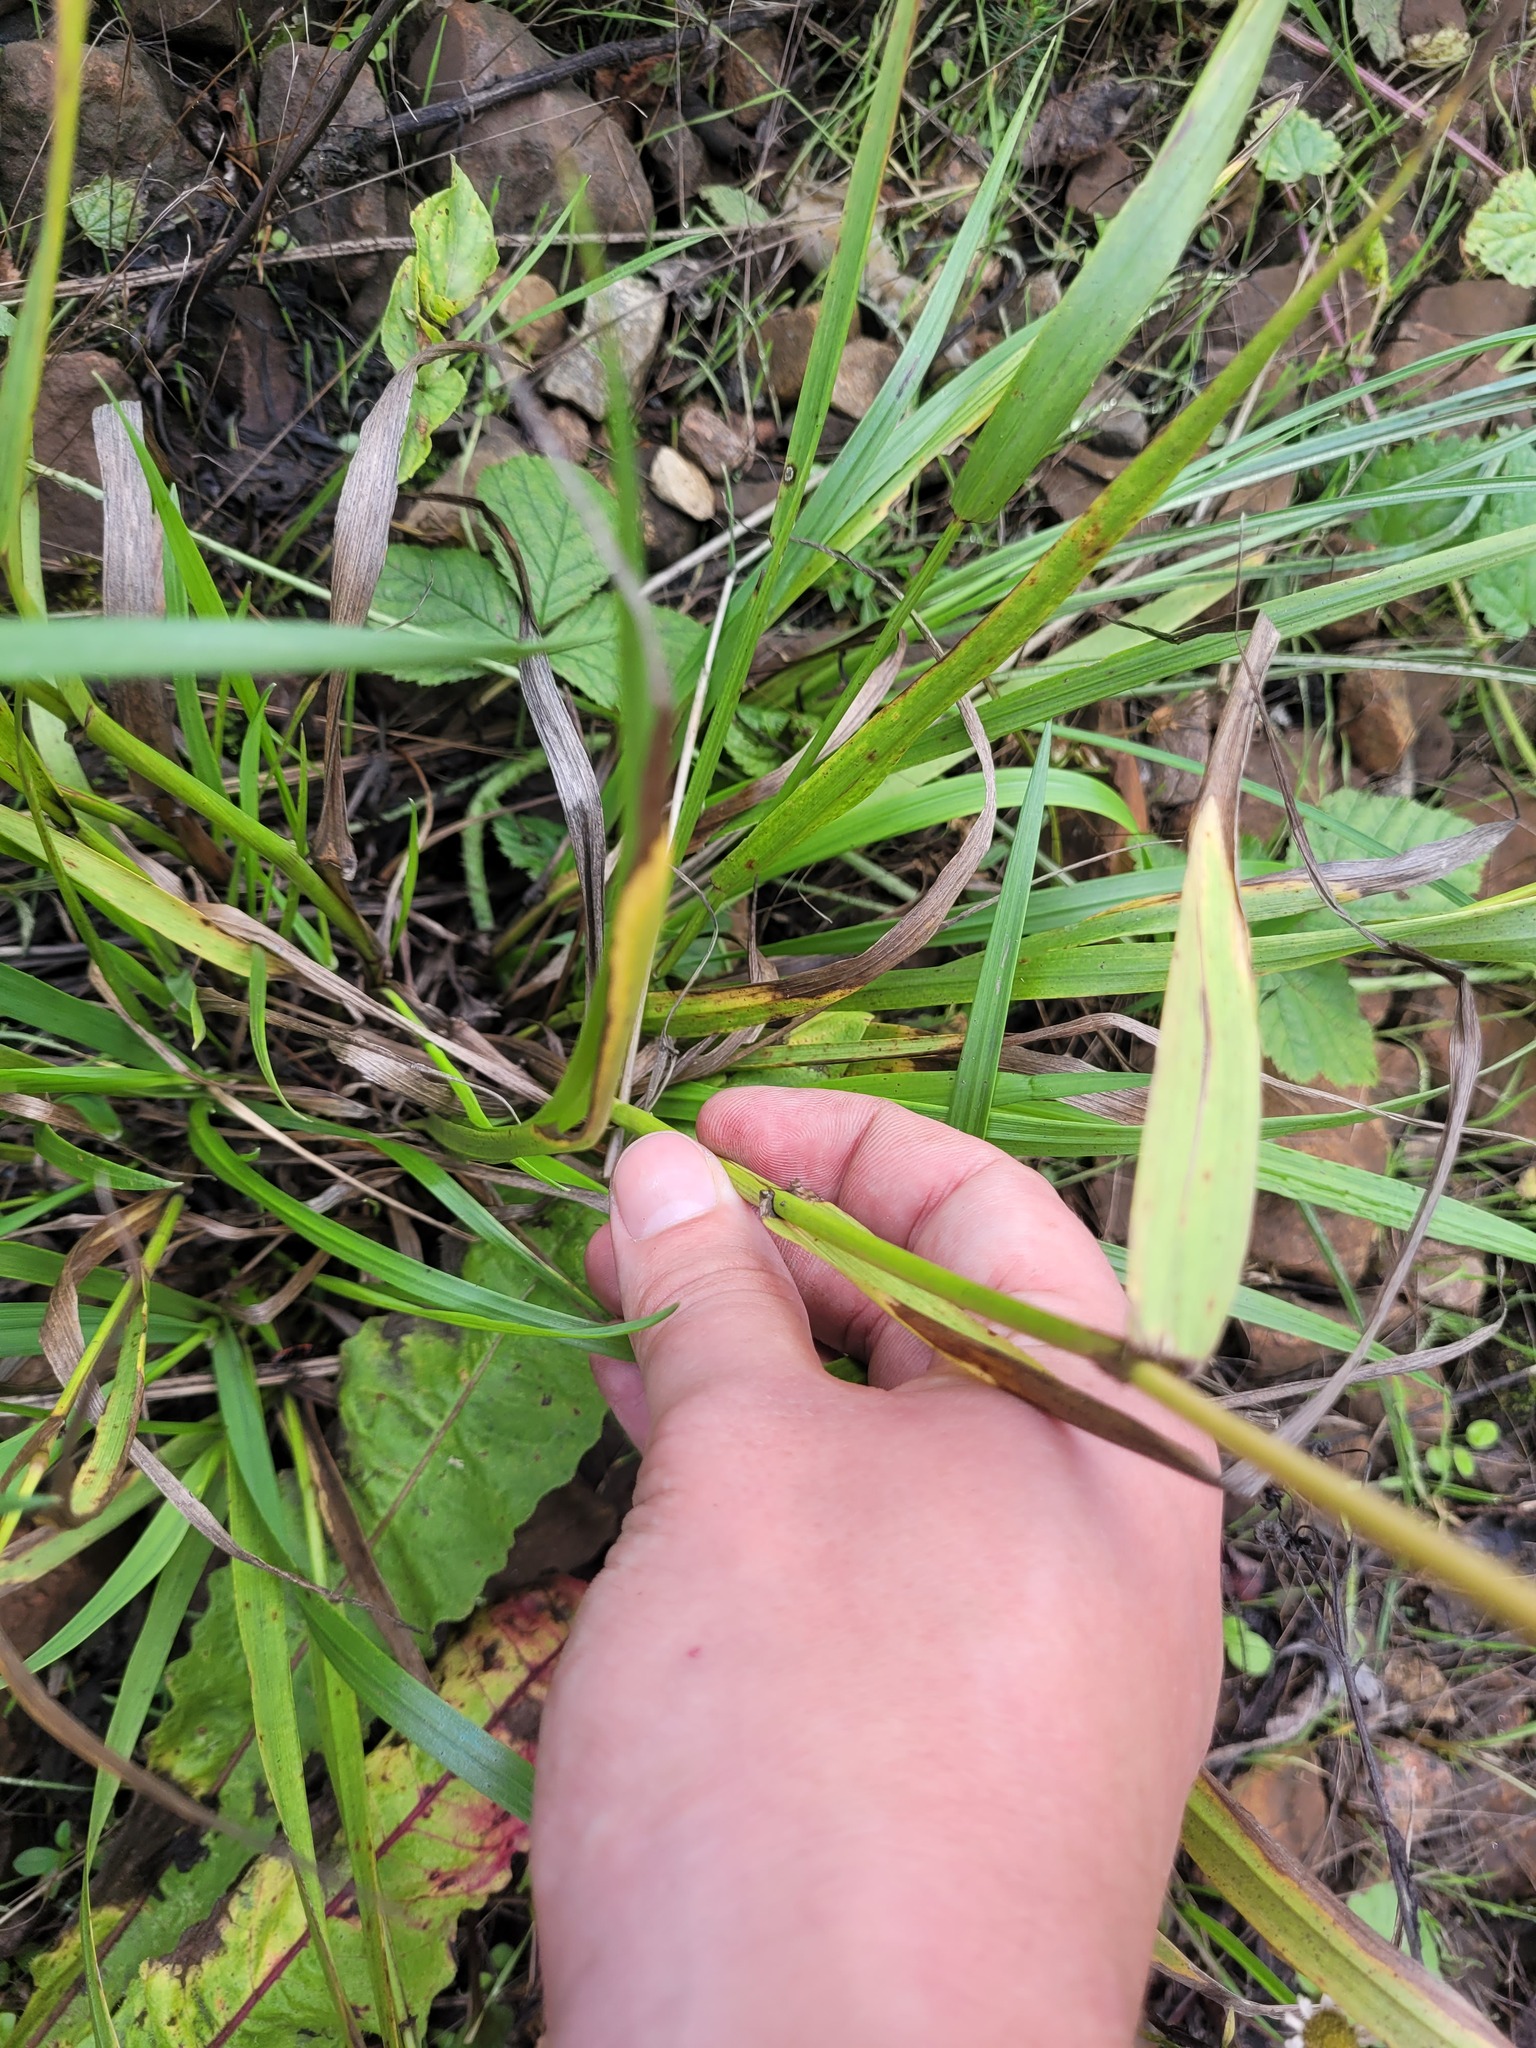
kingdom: Plantae
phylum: Tracheophyta
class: Liliopsida
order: Poales
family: Poaceae
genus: Lolium
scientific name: Lolium giganteum
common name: Giant fescue
